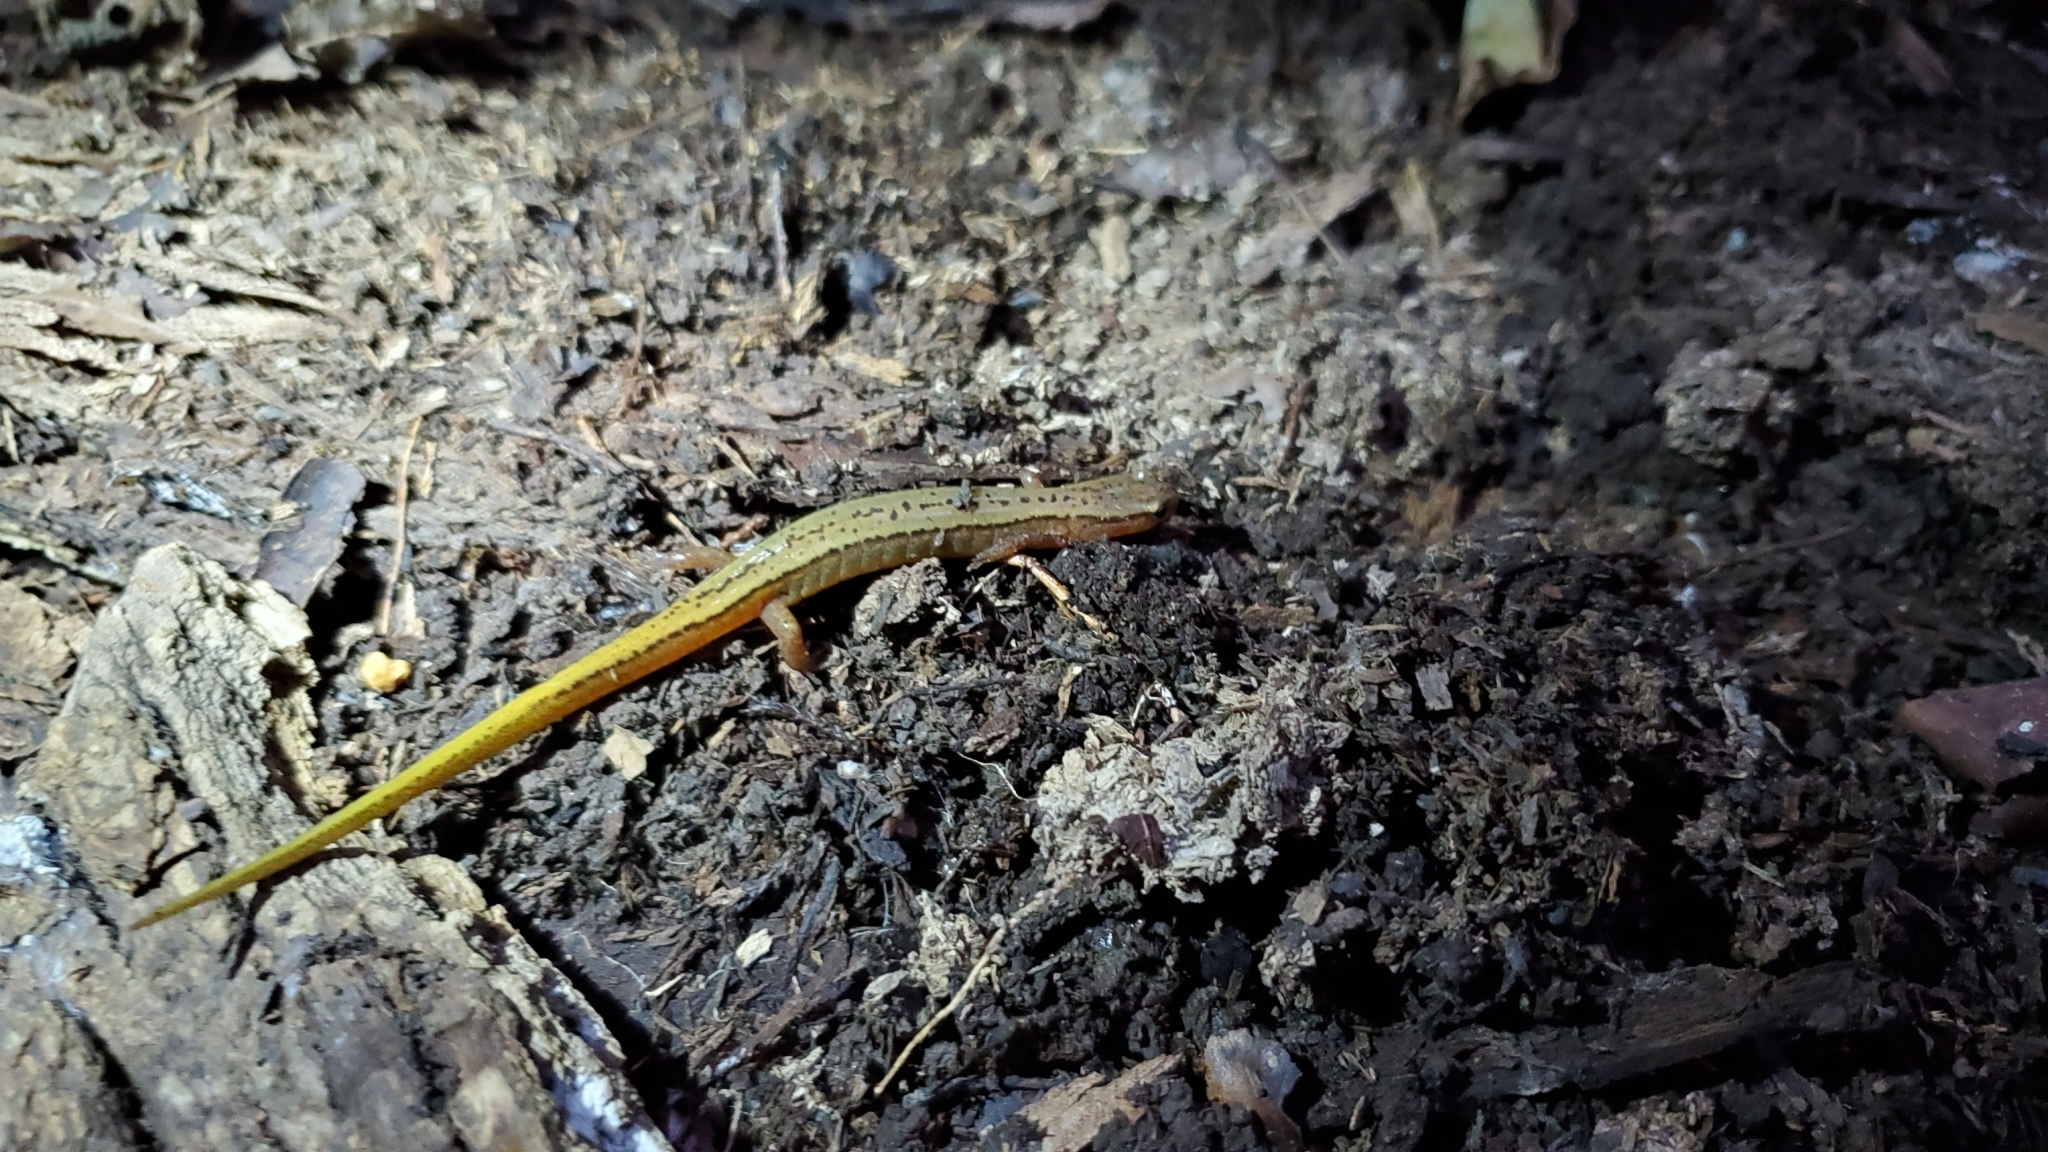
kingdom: Animalia
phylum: Chordata
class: Amphibia
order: Caudata
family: Plethodontidae
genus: Eurycea
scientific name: Eurycea cirrigera
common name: Southern two-lined salamander
